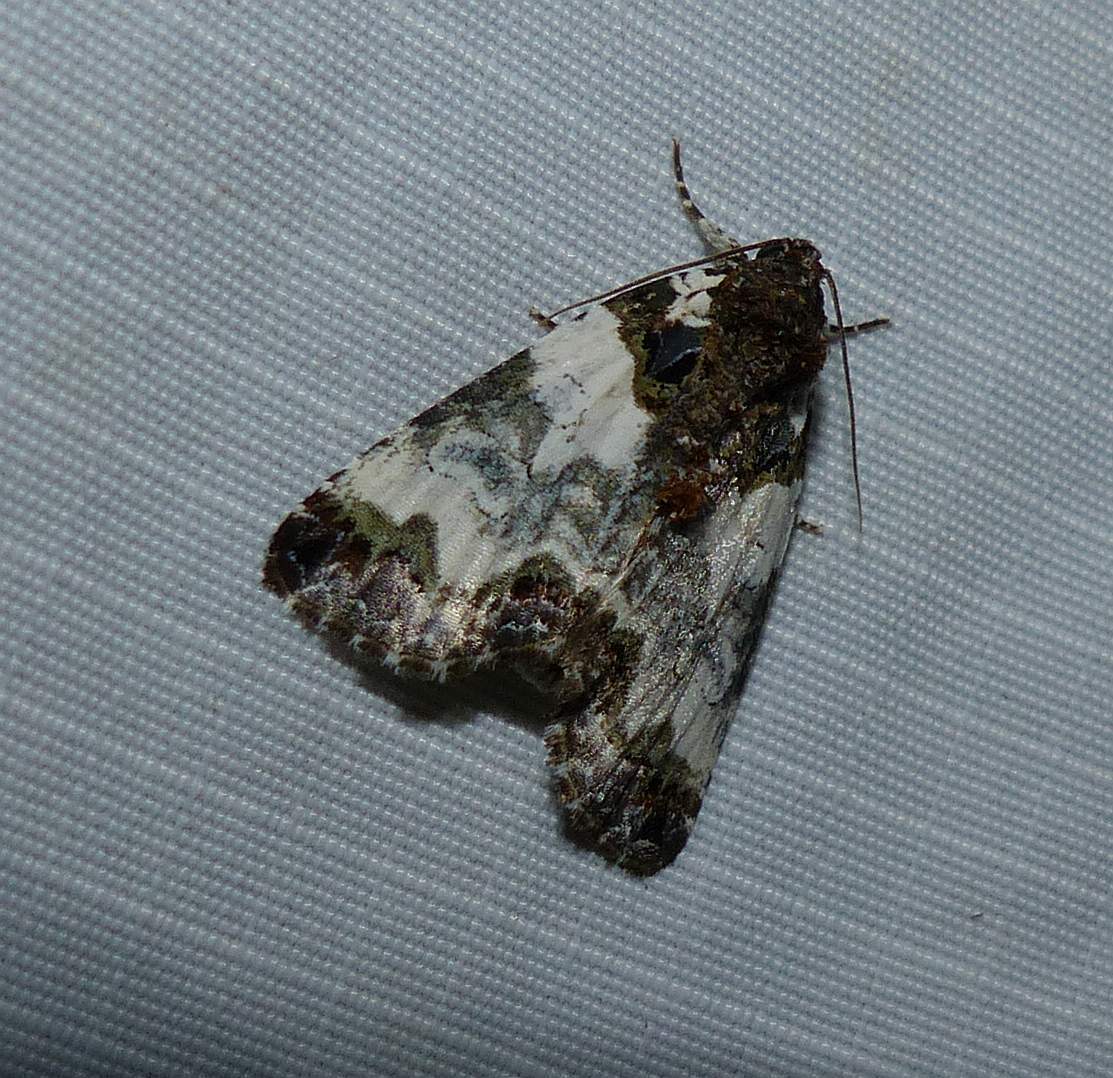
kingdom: Animalia
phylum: Arthropoda
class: Insecta
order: Lepidoptera
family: Noctuidae
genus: Cerma
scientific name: Cerma cerintha
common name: Tufted bird-dropping moth
